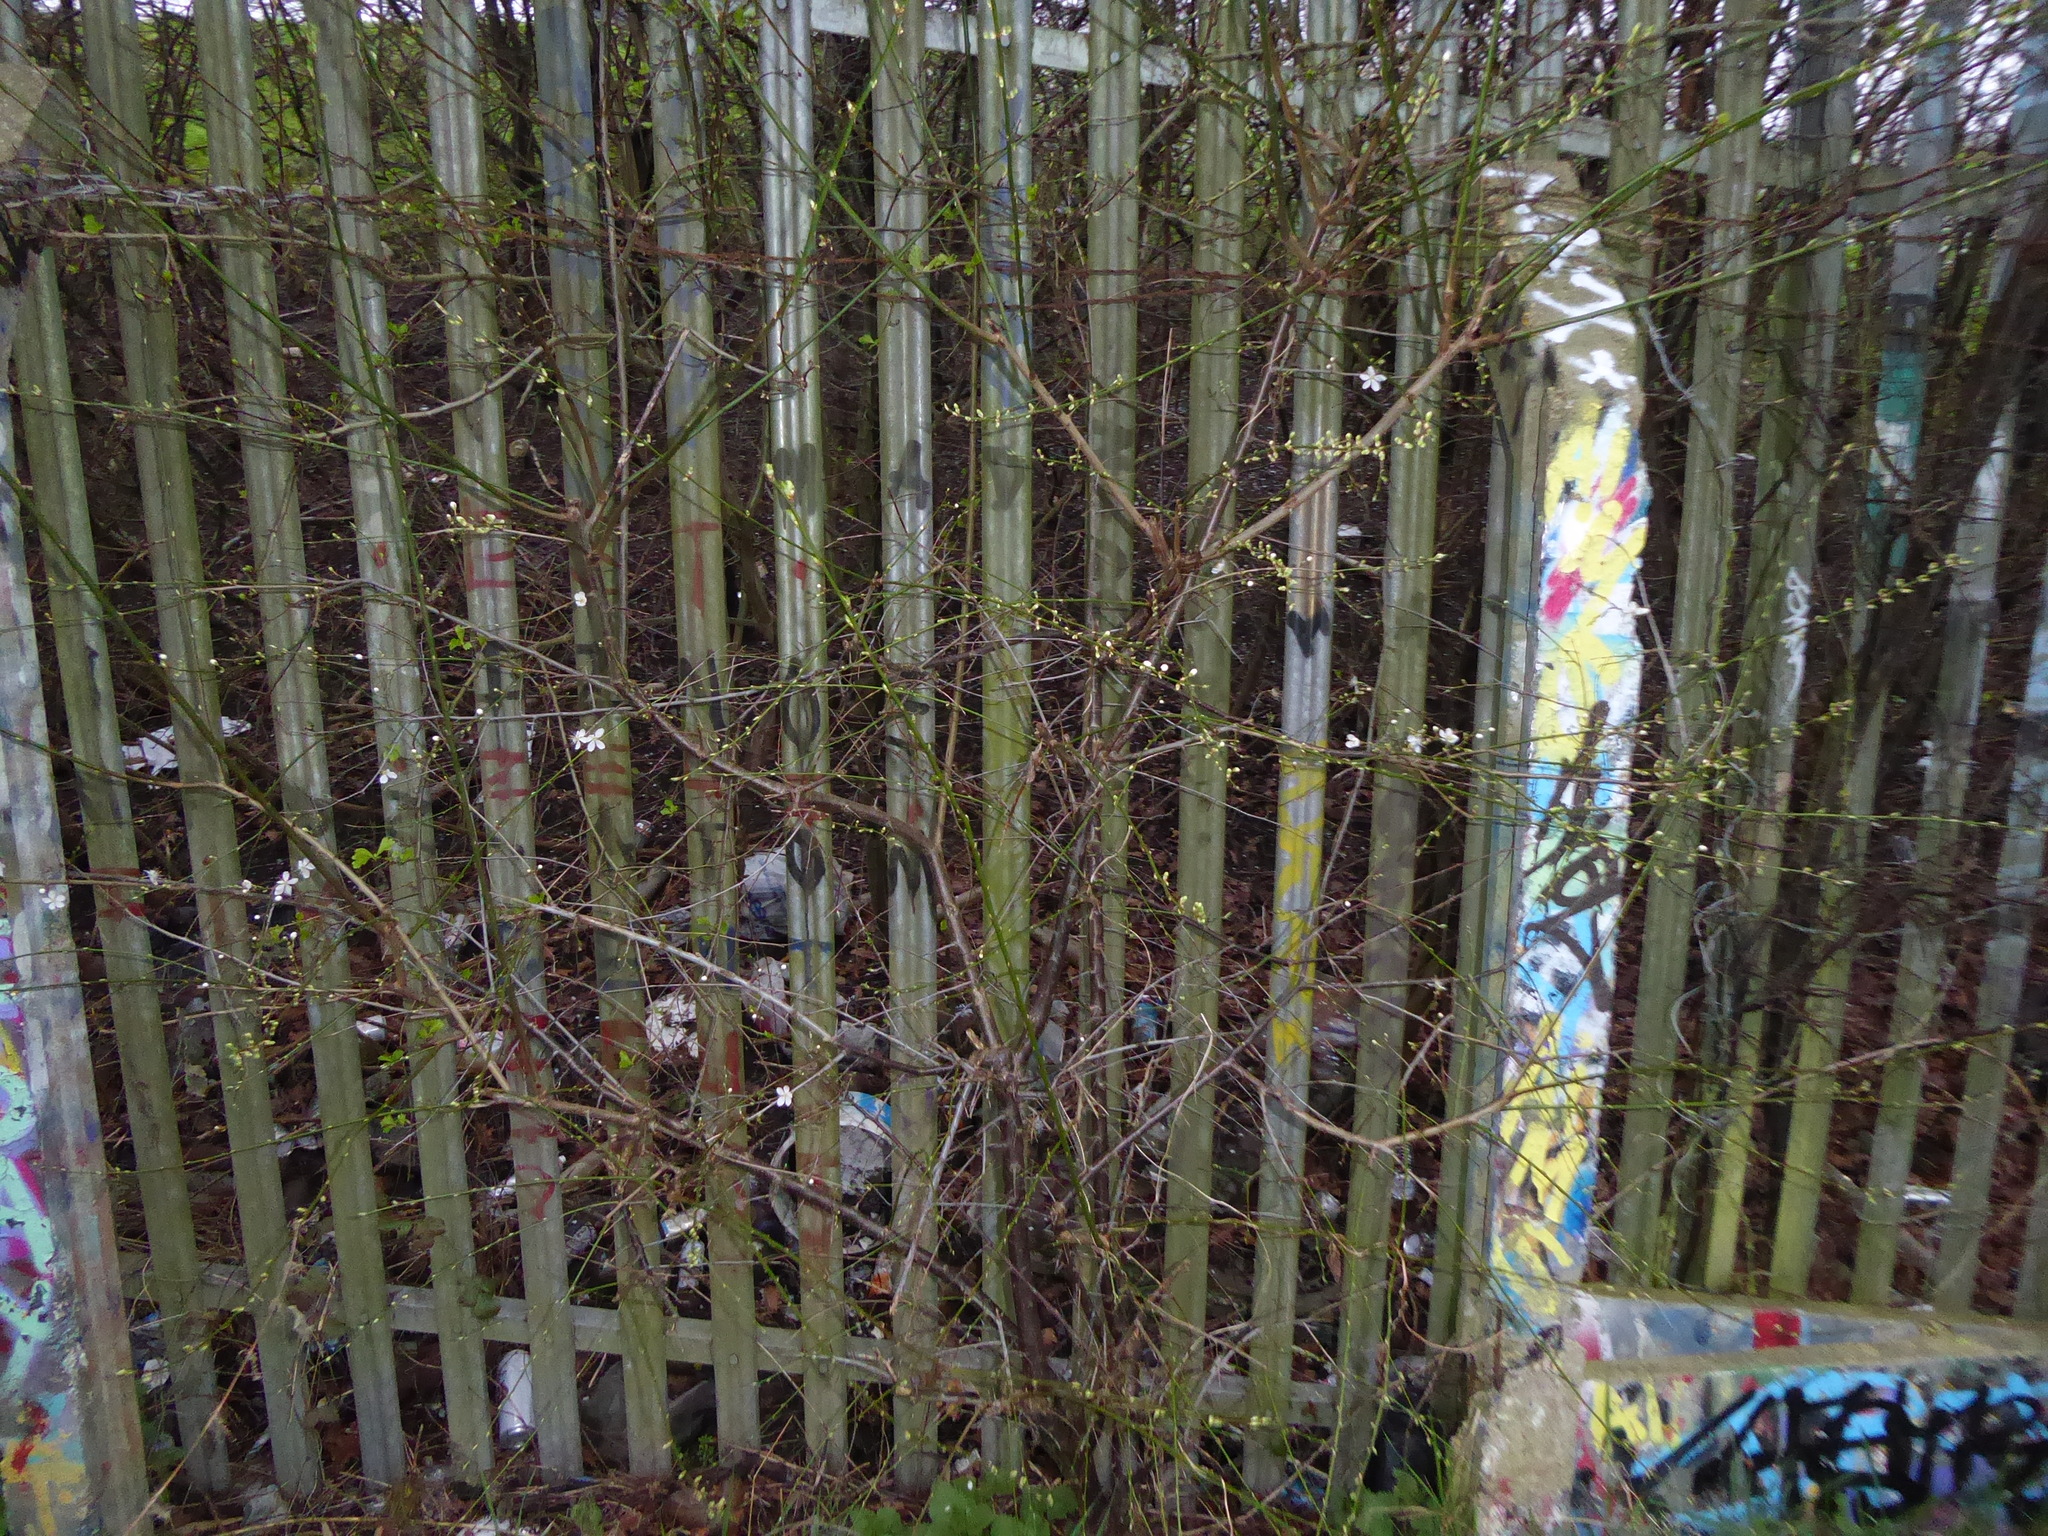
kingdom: Plantae
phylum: Tracheophyta
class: Magnoliopsida
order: Rosales
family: Rosaceae
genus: Prunus
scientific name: Prunus cerasifera
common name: Cherry plum
